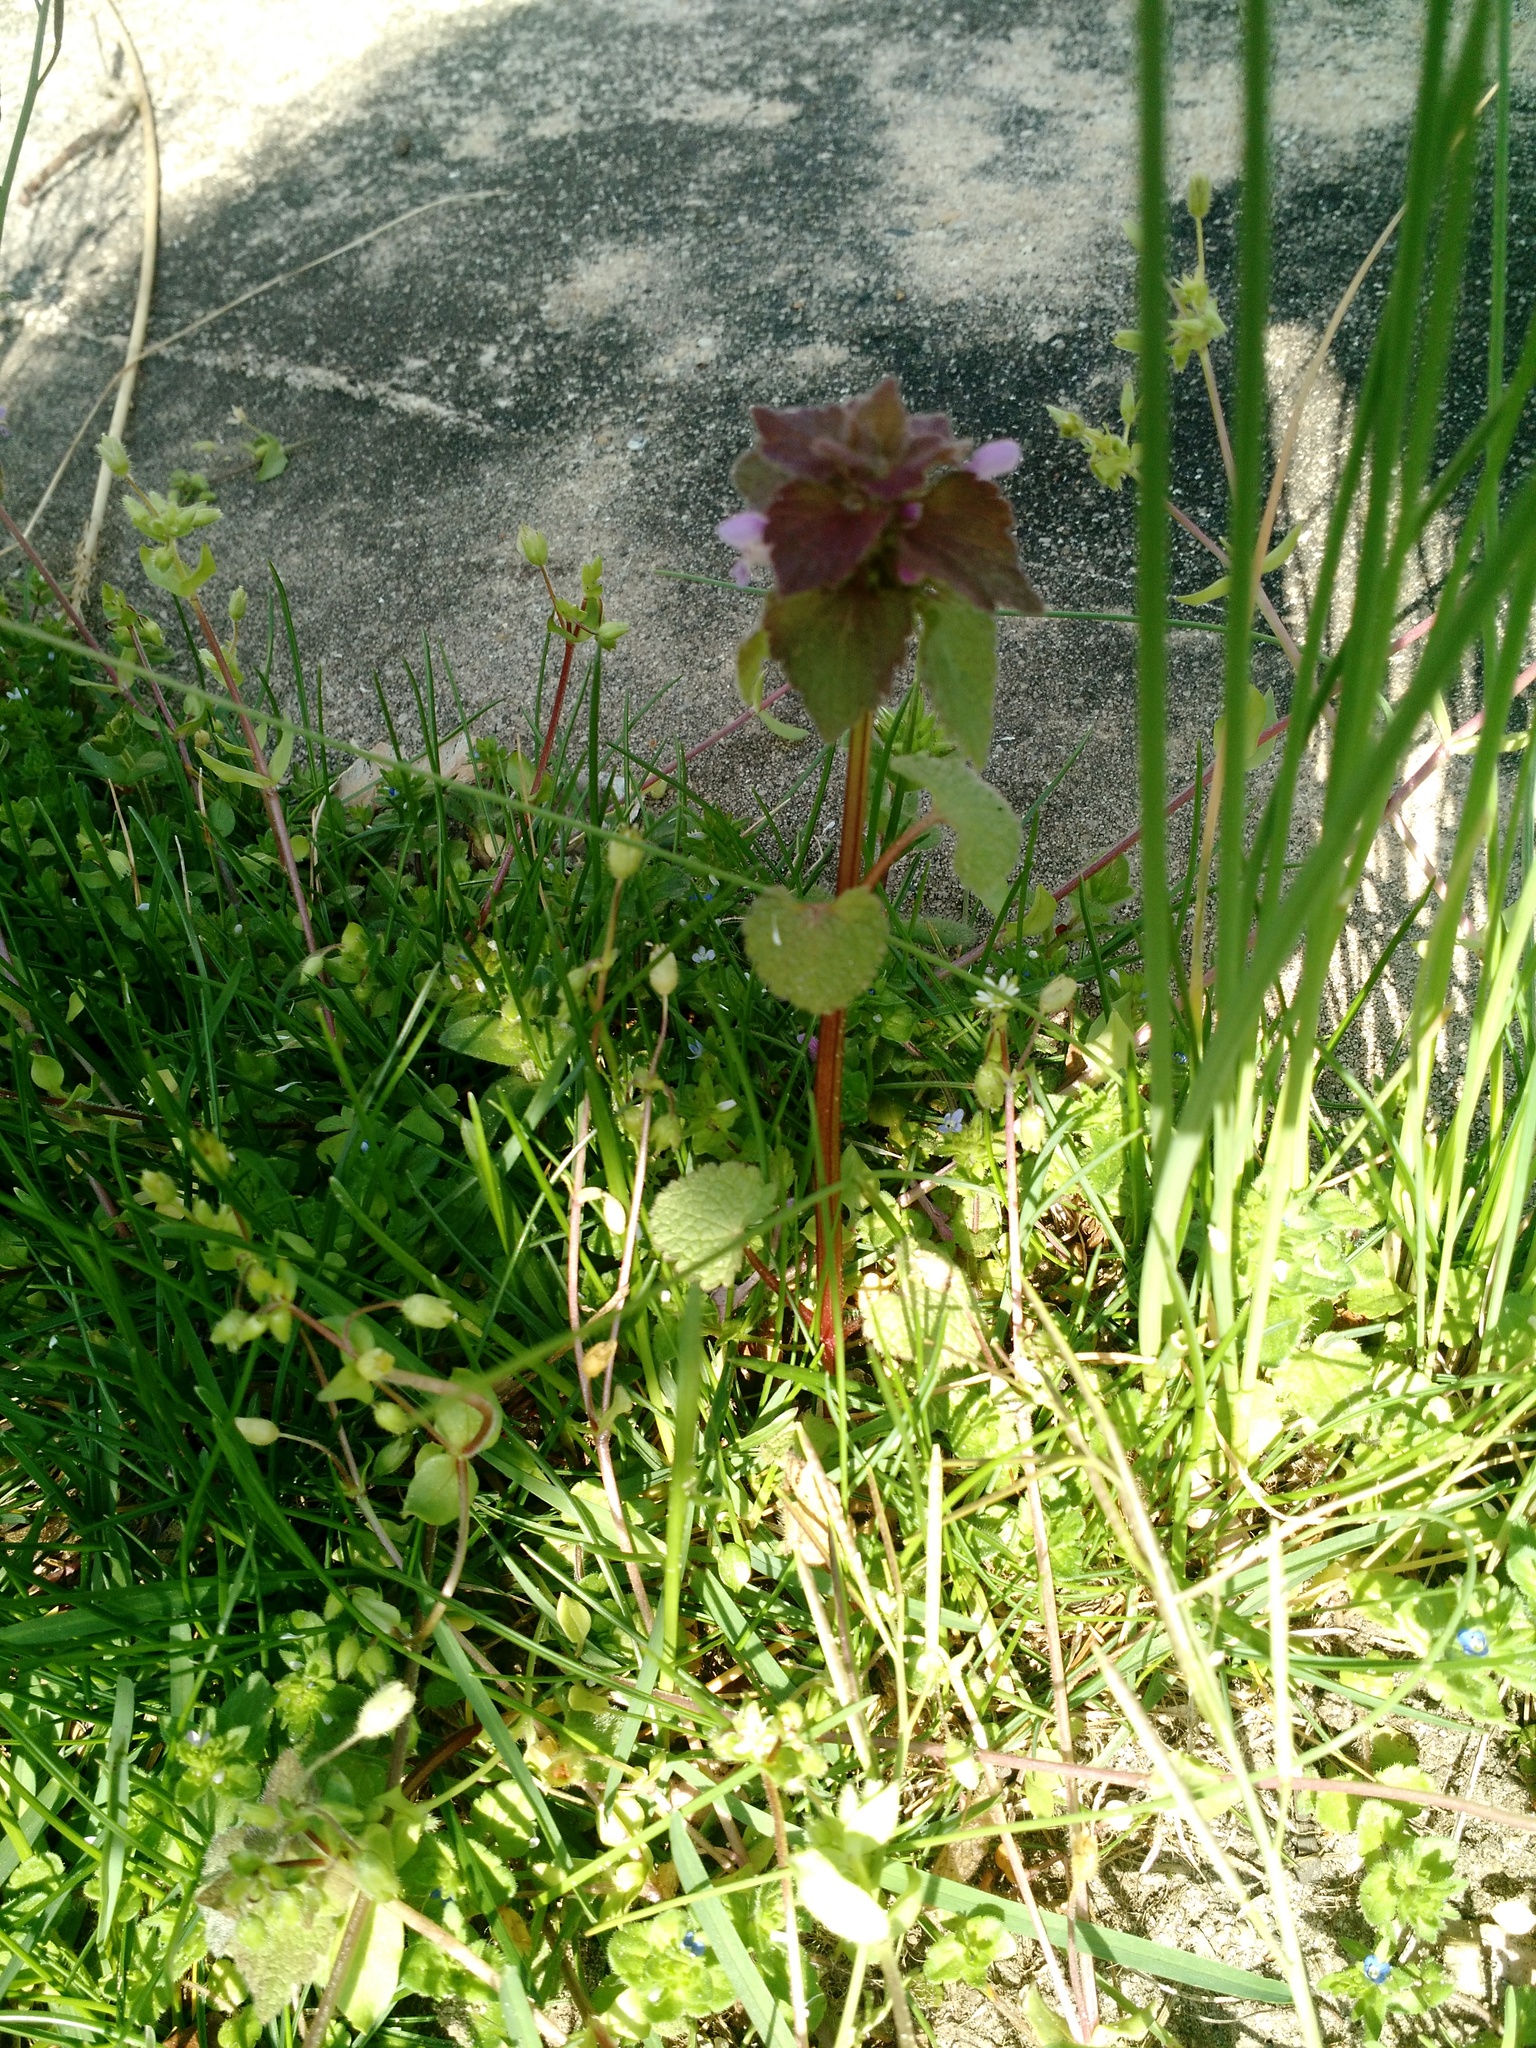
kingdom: Plantae
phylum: Tracheophyta
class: Magnoliopsida
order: Lamiales
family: Lamiaceae
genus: Lamium
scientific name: Lamium purpureum
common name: Red dead-nettle
